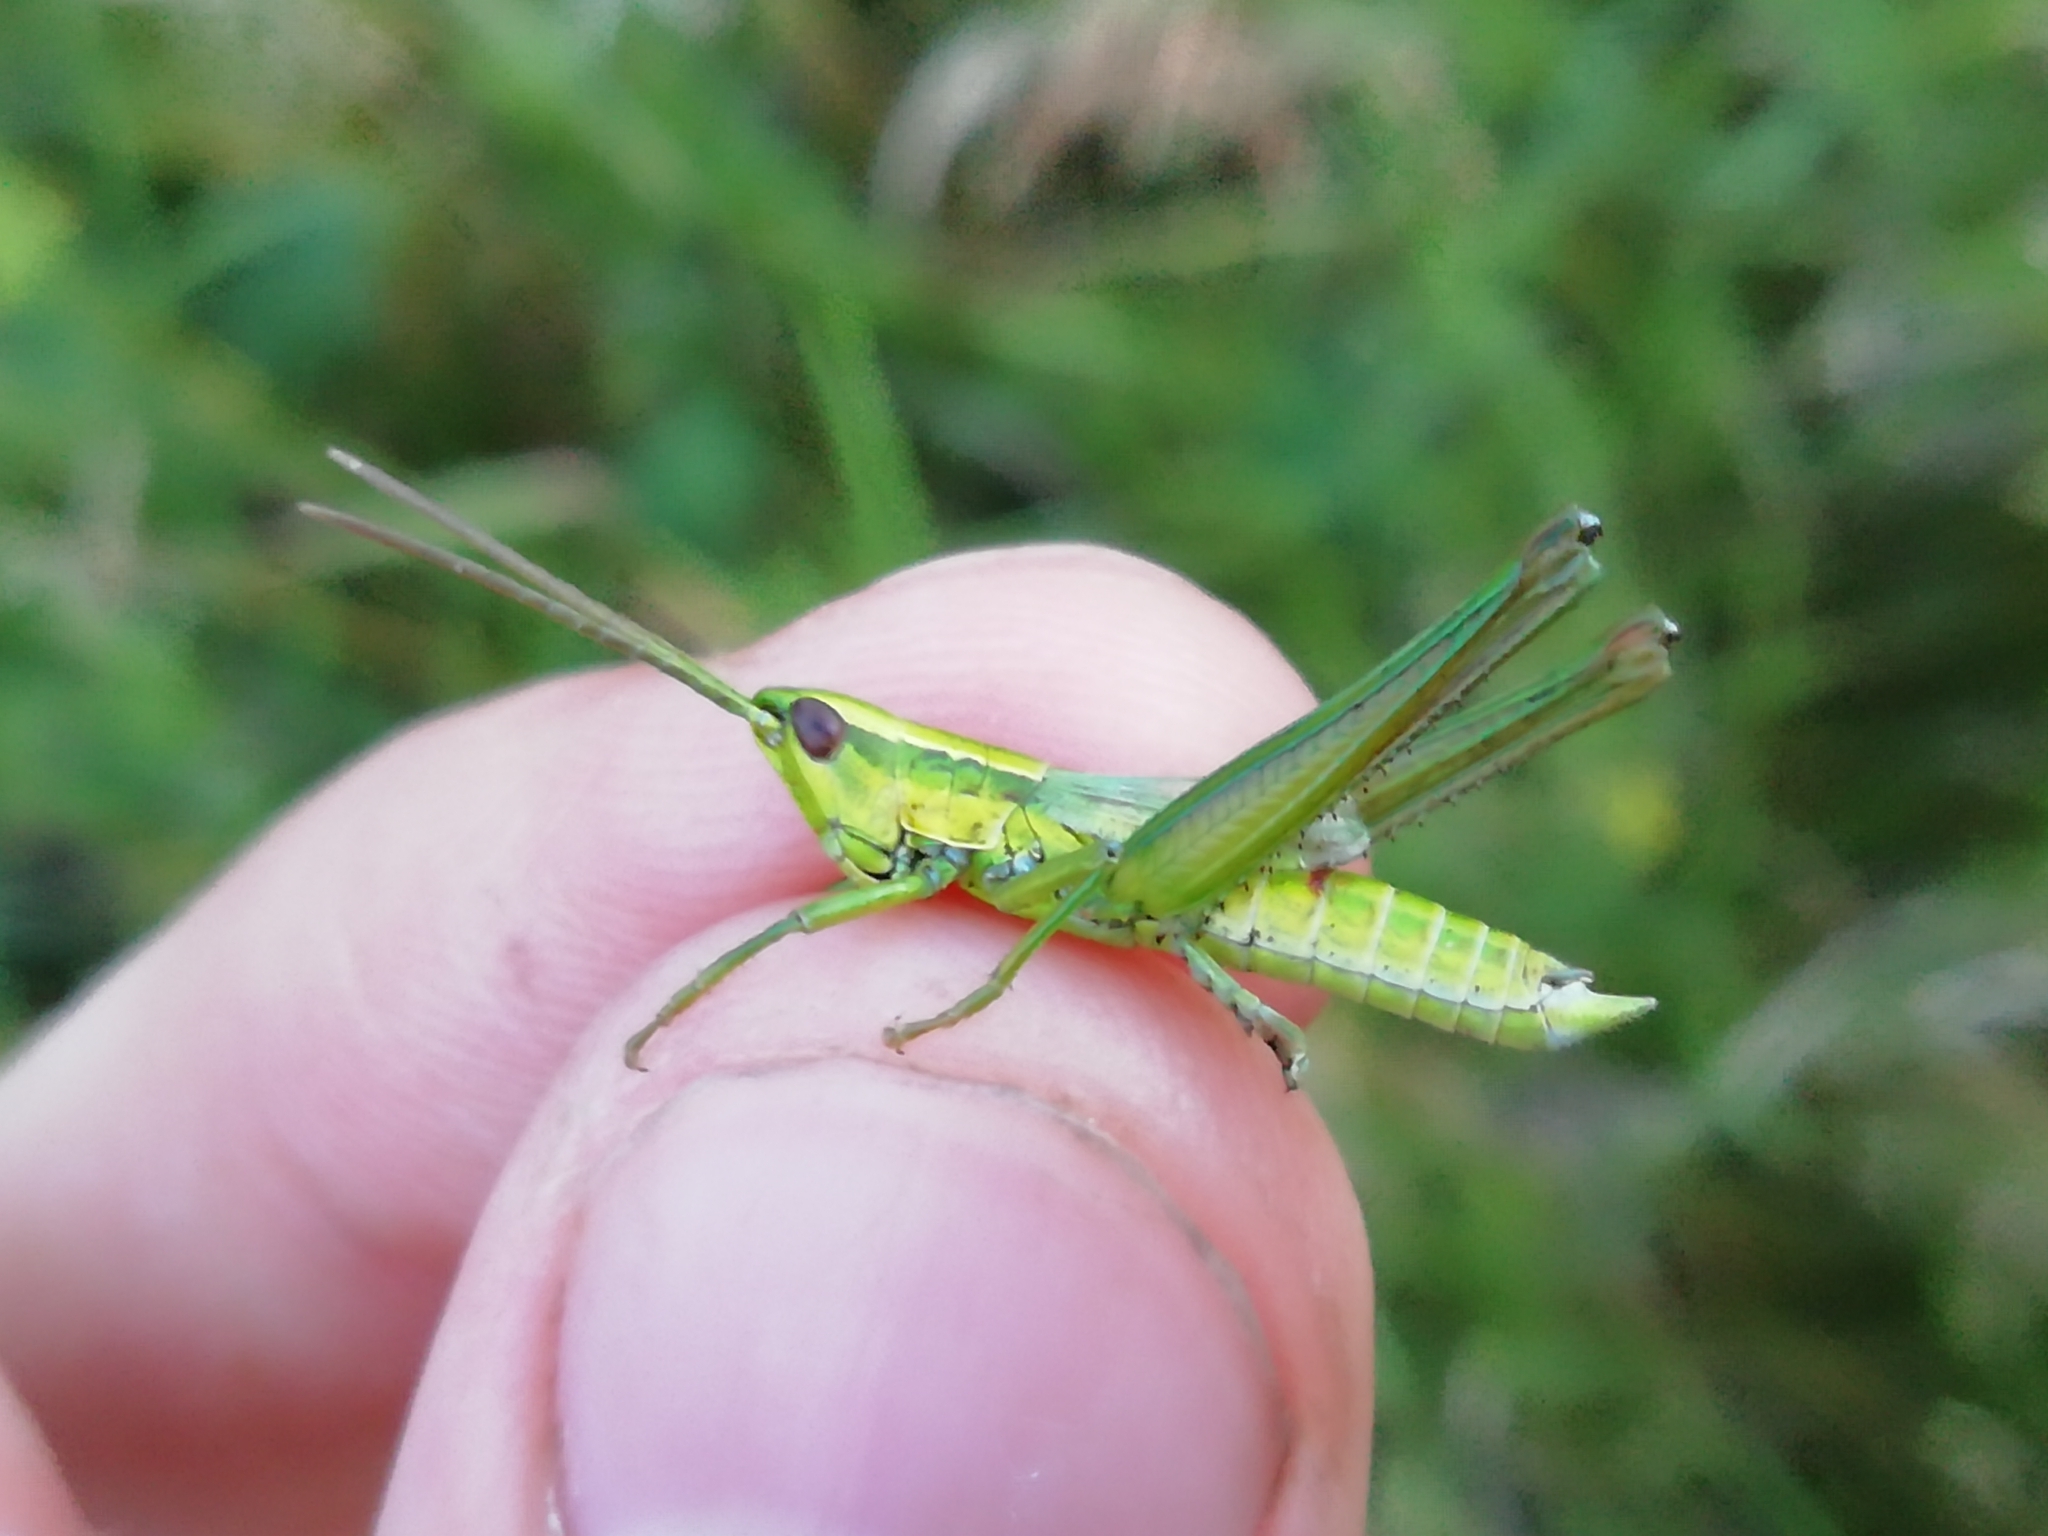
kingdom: Animalia
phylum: Arthropoda
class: Insecta
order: Orthoptera
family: Acrididae
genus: Euthystira
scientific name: Euthystira brachyptera
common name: Small gold grasshopper
